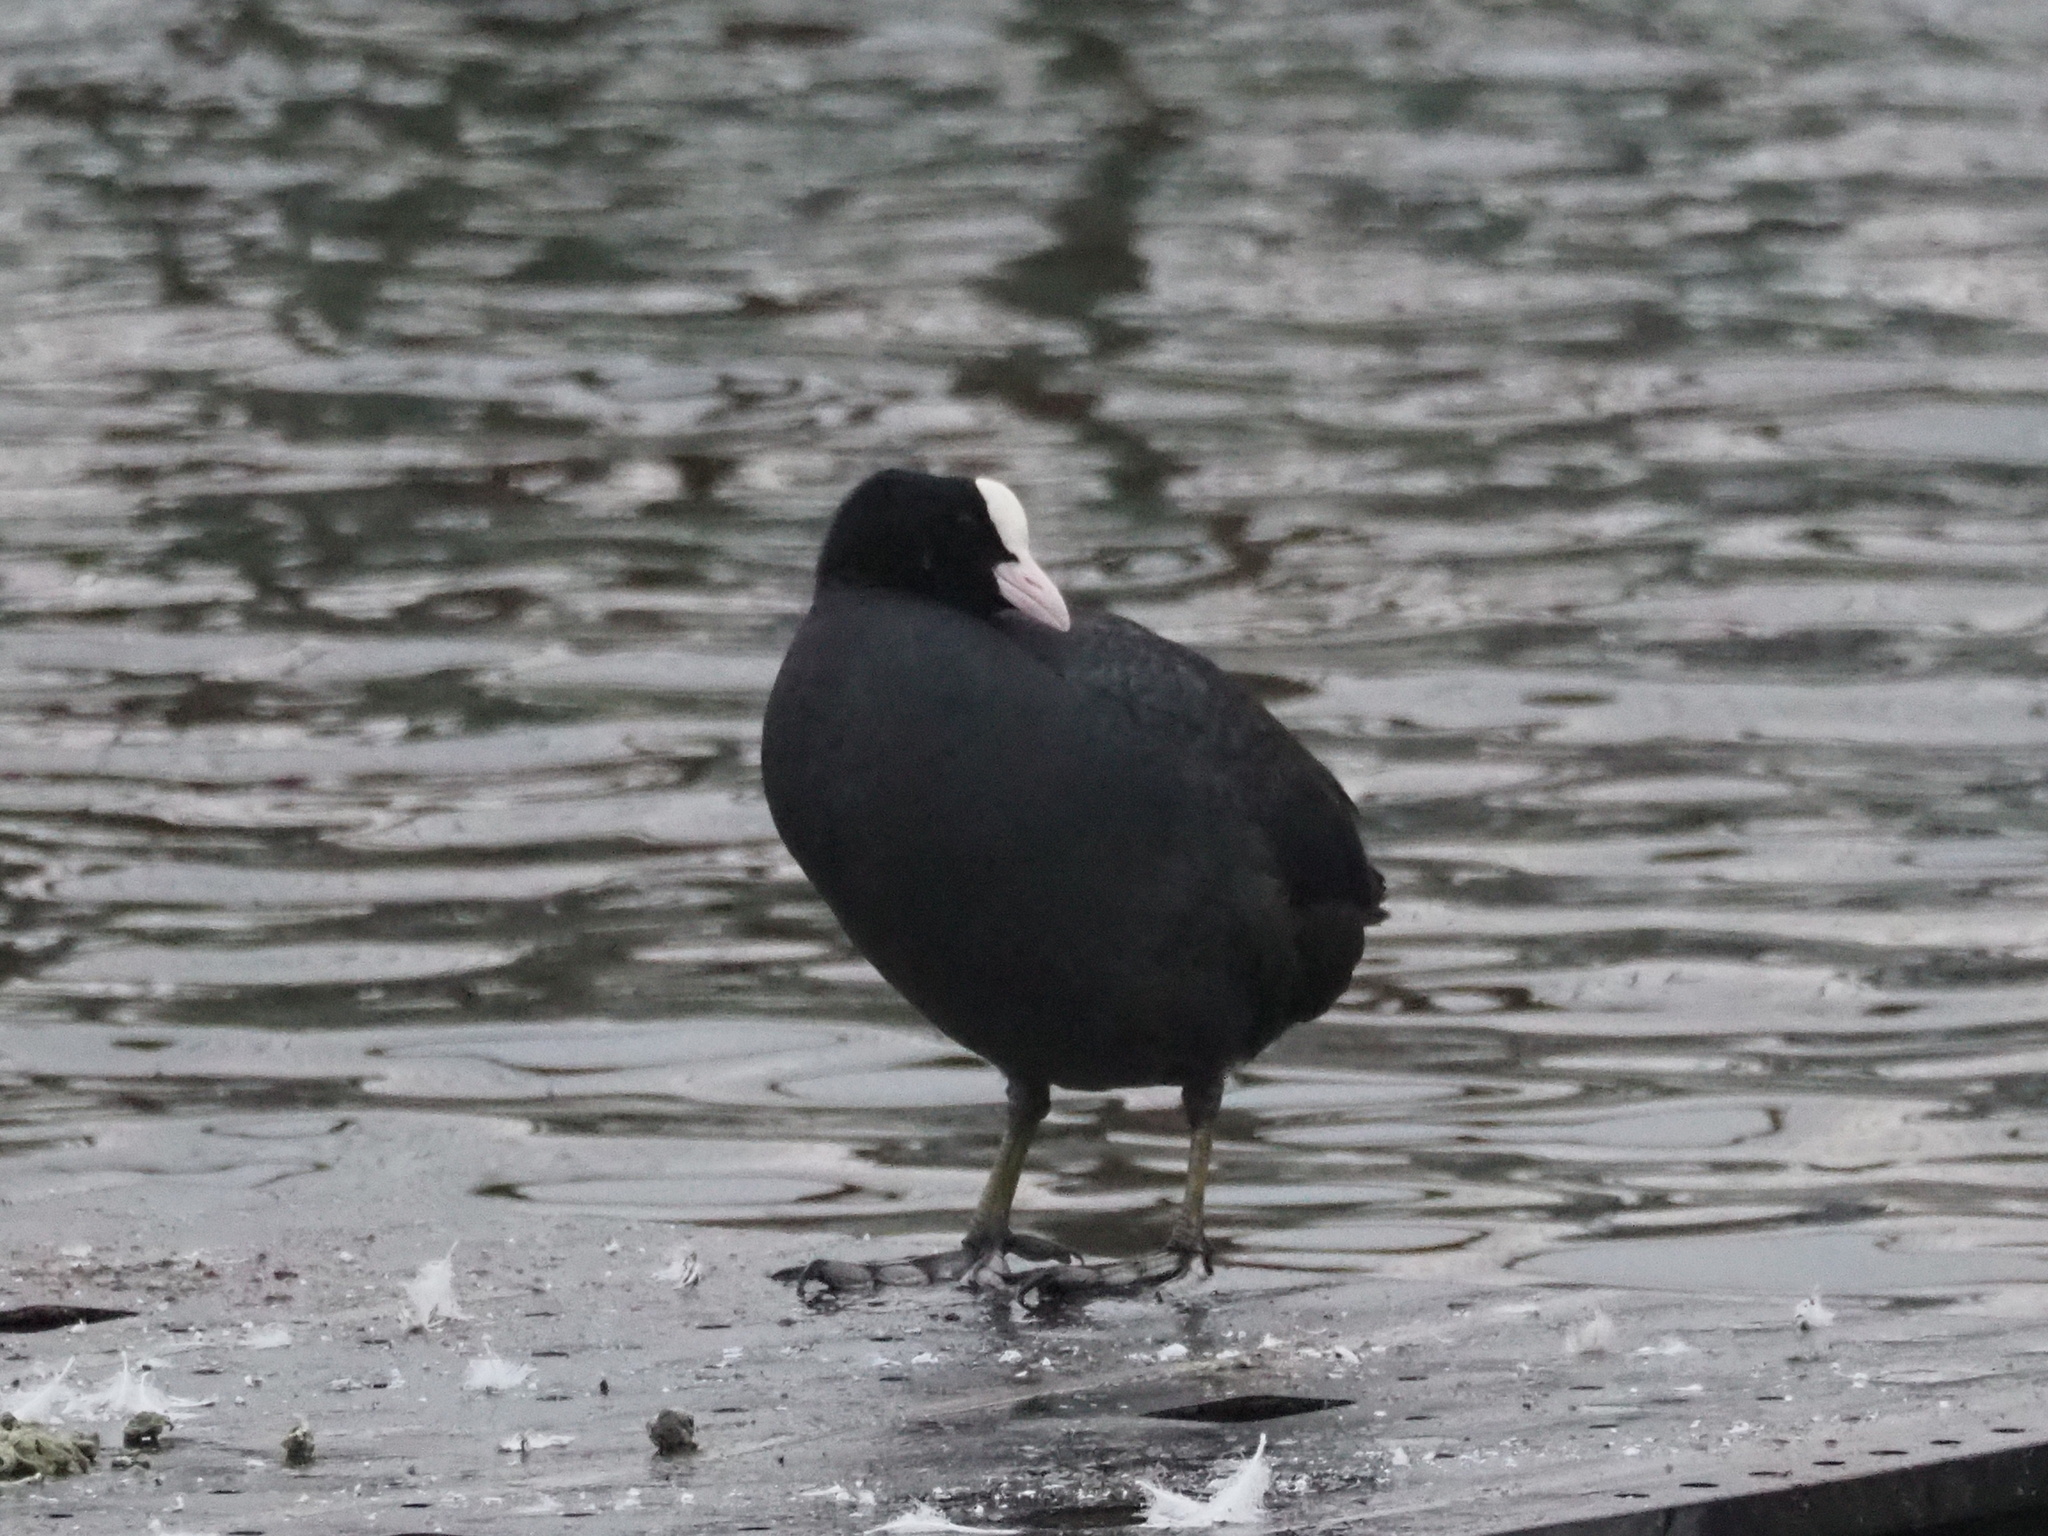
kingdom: Animalia
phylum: Chordata
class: Aves
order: Gruiformes
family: Rallidae
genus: Fulica
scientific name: Fulica atra
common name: Eurasian coot
